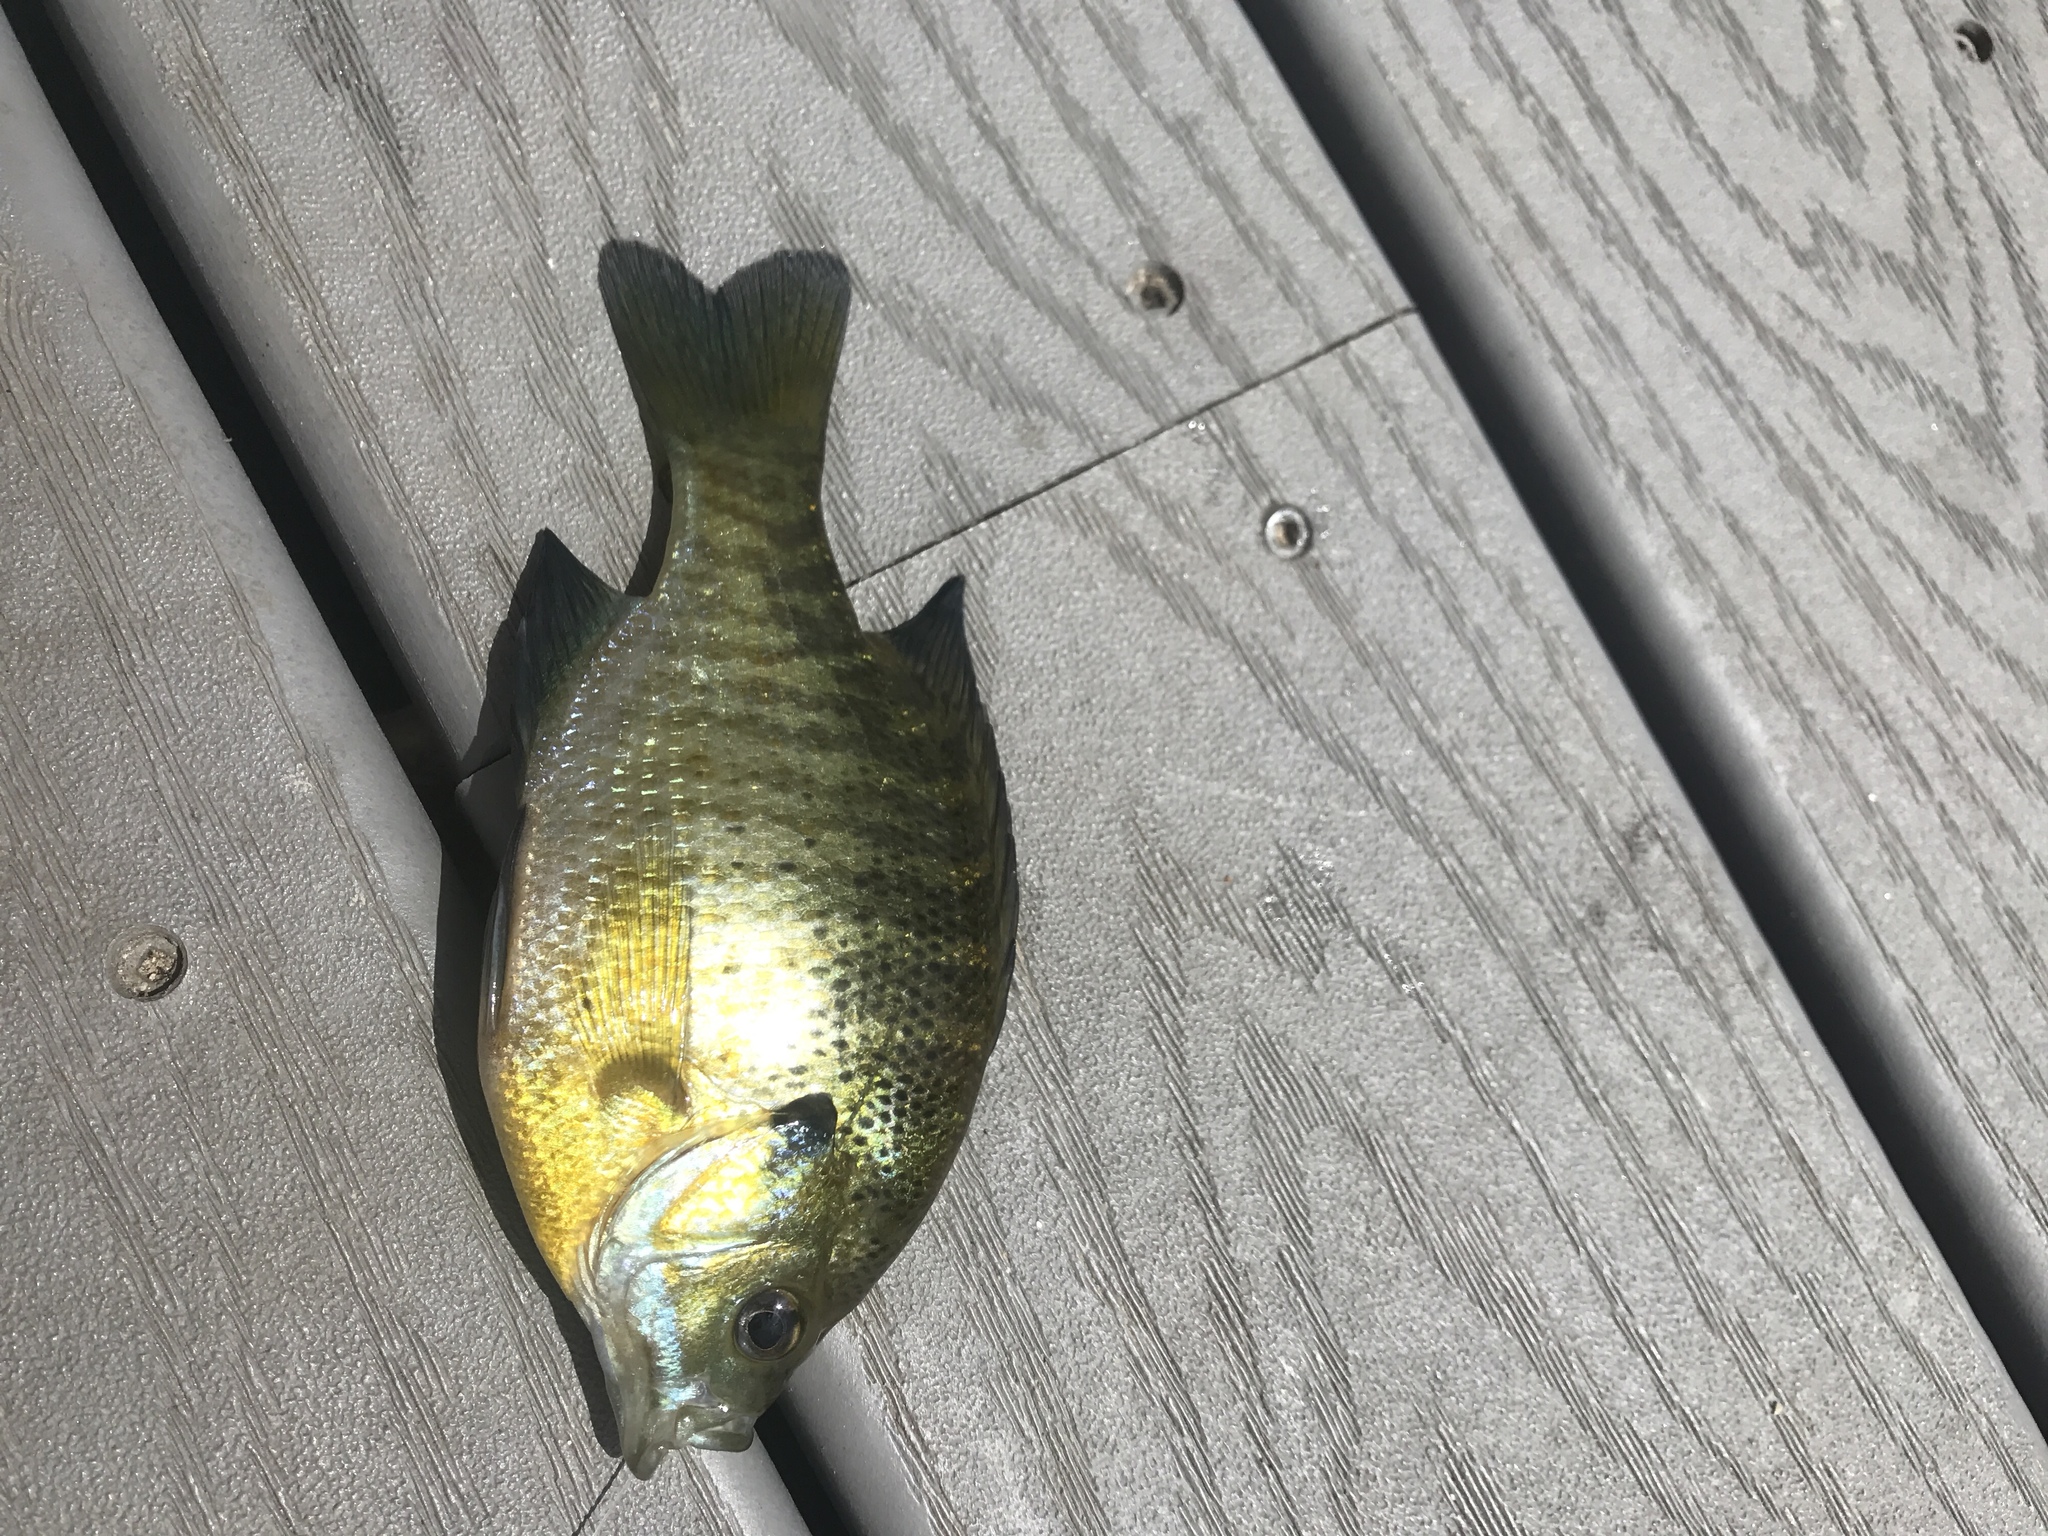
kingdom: Animalia
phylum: Chordata
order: Perciformes
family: Centrarchidae
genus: Lepomis
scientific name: Lepomis macrochirus
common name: Bluegill
